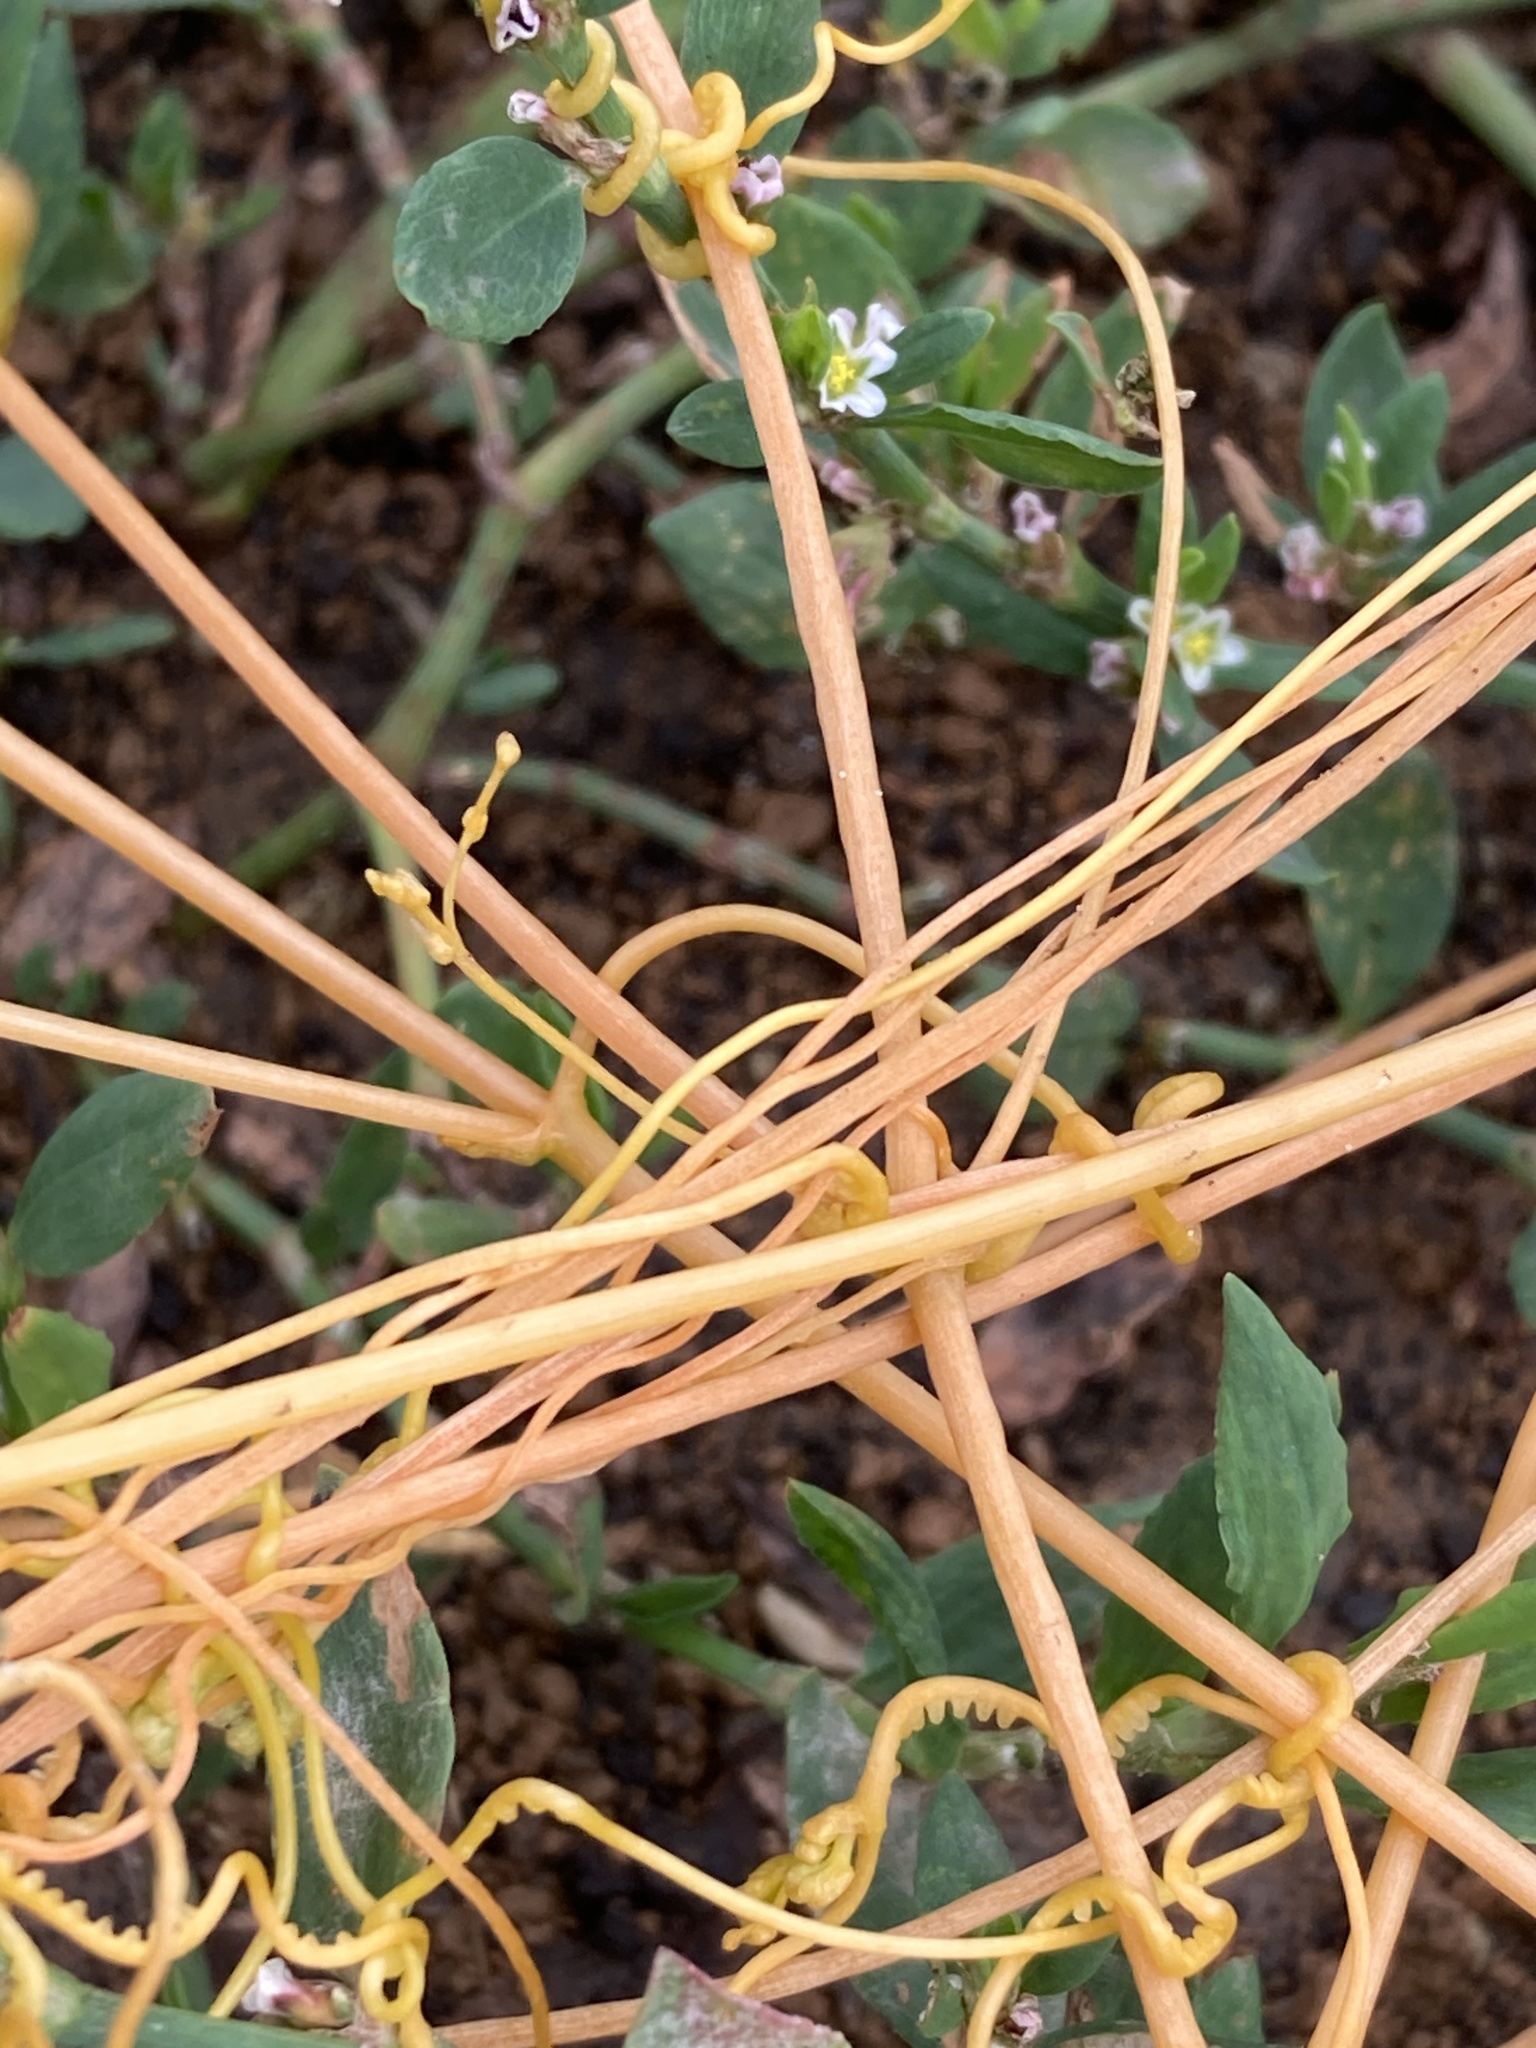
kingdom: Plantae
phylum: Tracheophyta
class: Magnoliopsida
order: Solanales
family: Convolvulaceae
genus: Cuscuta
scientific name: Cuscuta campestris
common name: Yellow dodder
